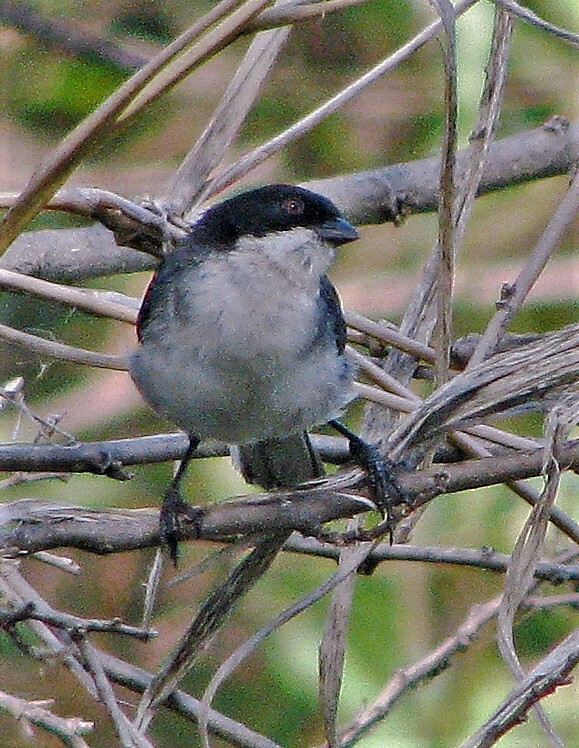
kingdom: Animalia
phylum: Chordata
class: Aves
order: Passeriformes
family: Thraupidae
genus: Microspingus
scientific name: Microspingus melanoleucus
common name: Black-capped warbling-finch
